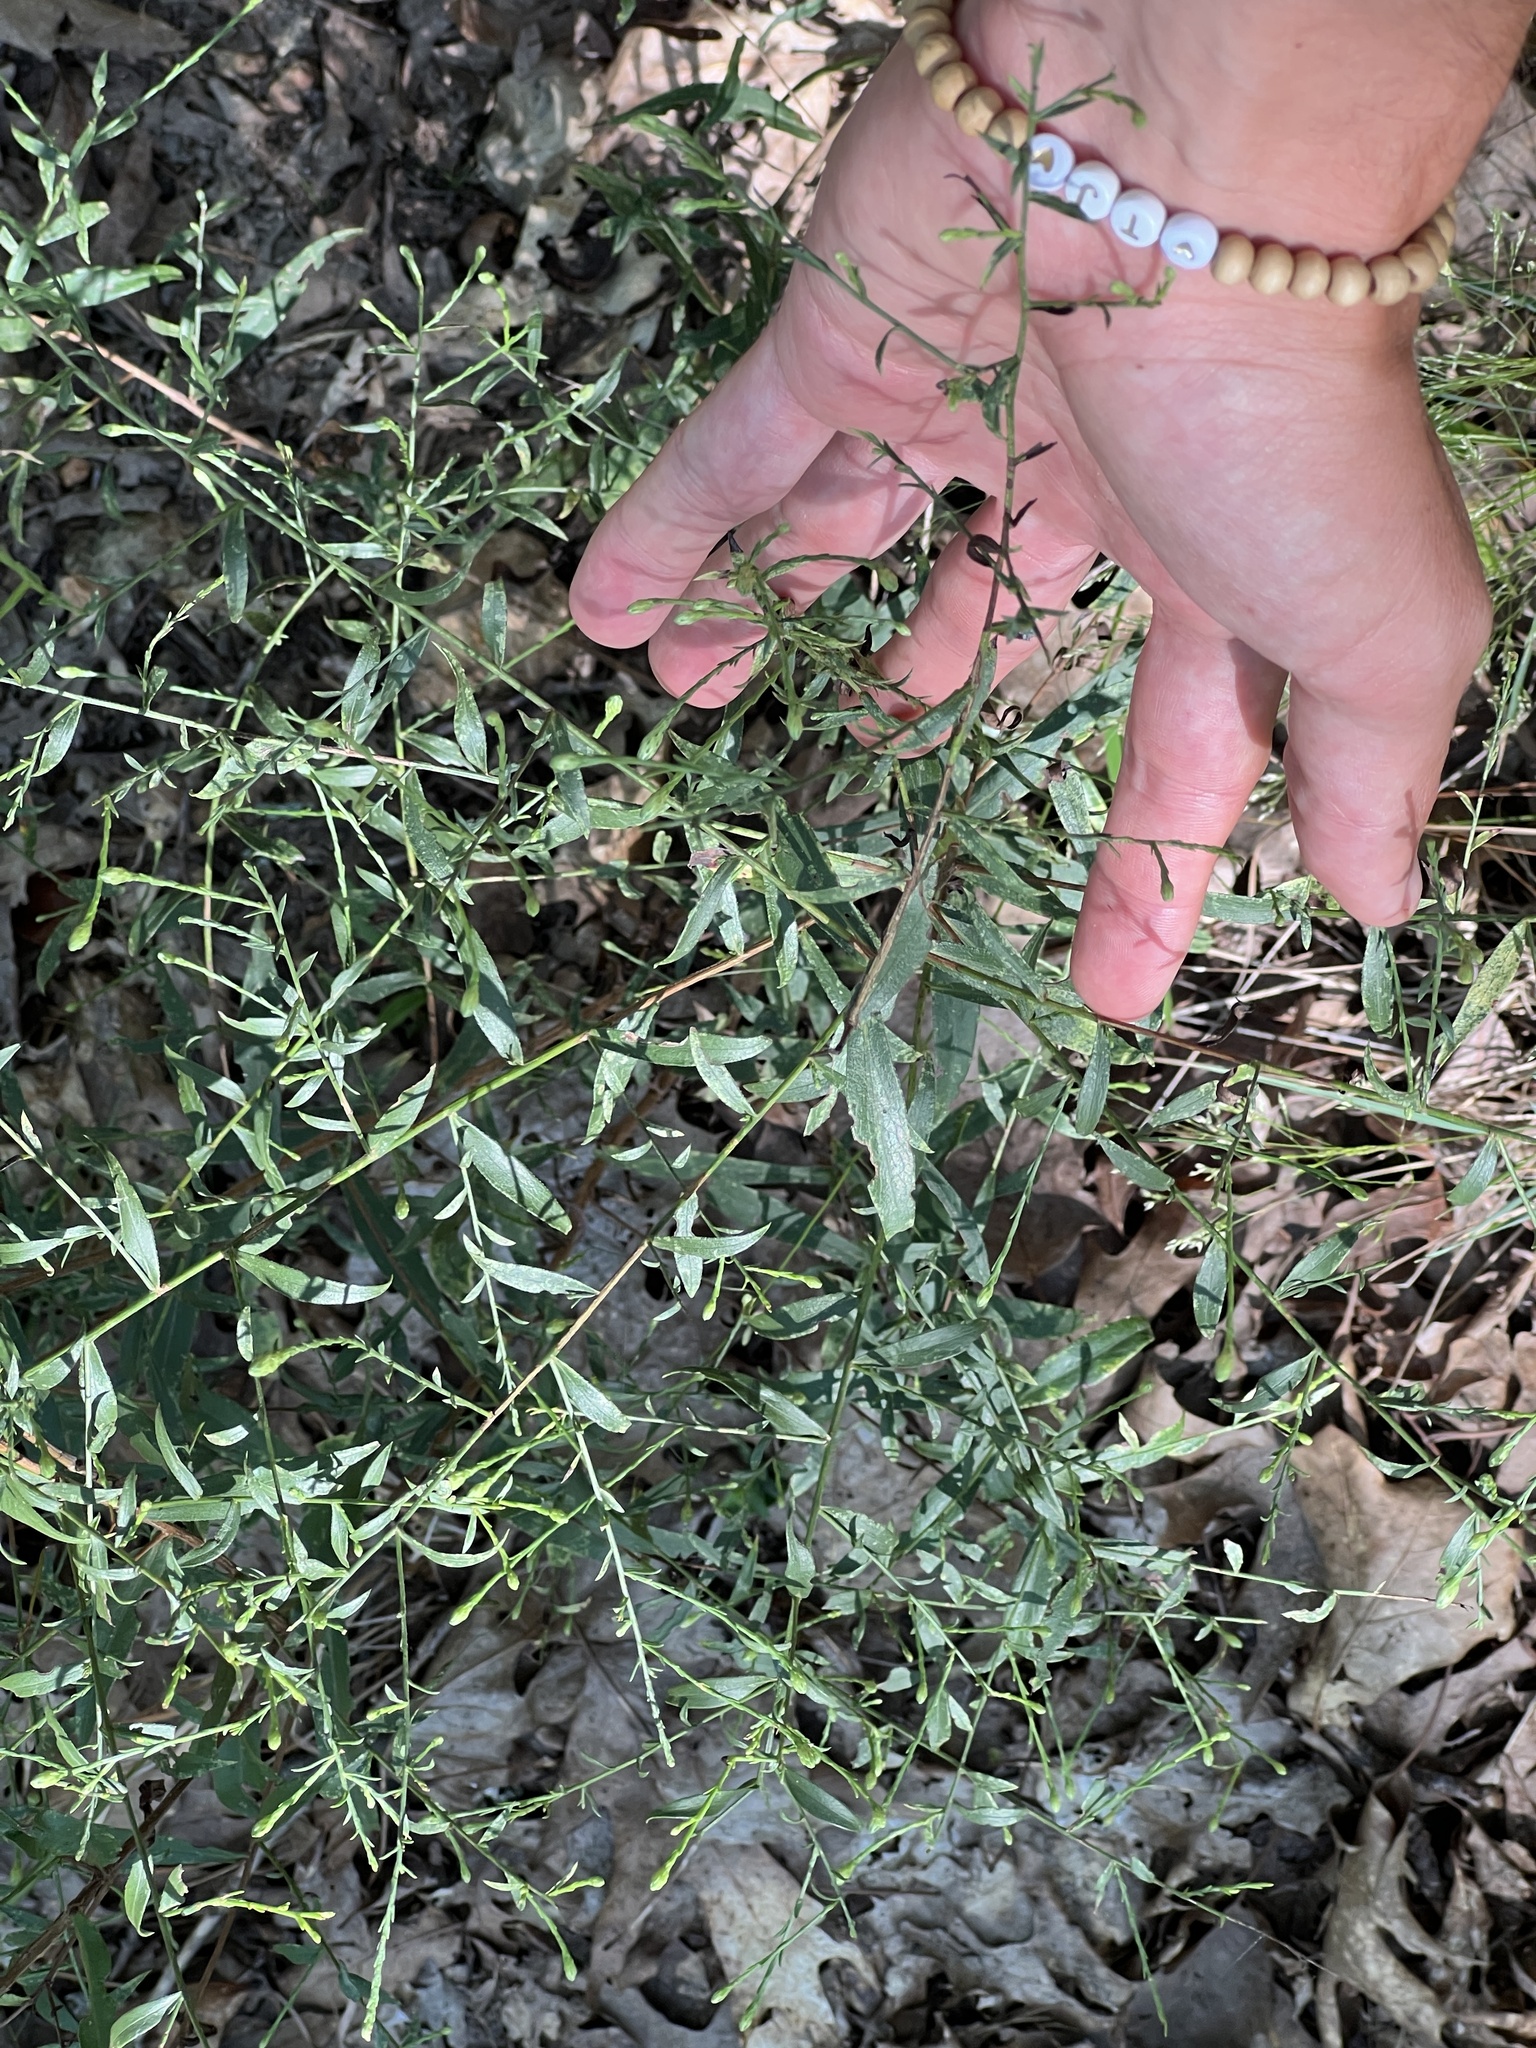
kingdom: Plantae
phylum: Tracheophyta
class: Magnoliopsida
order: Asterales
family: Asteraceae
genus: Symphyotrichum
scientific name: Symphyotrichum turbinellum
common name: Prairie aster
